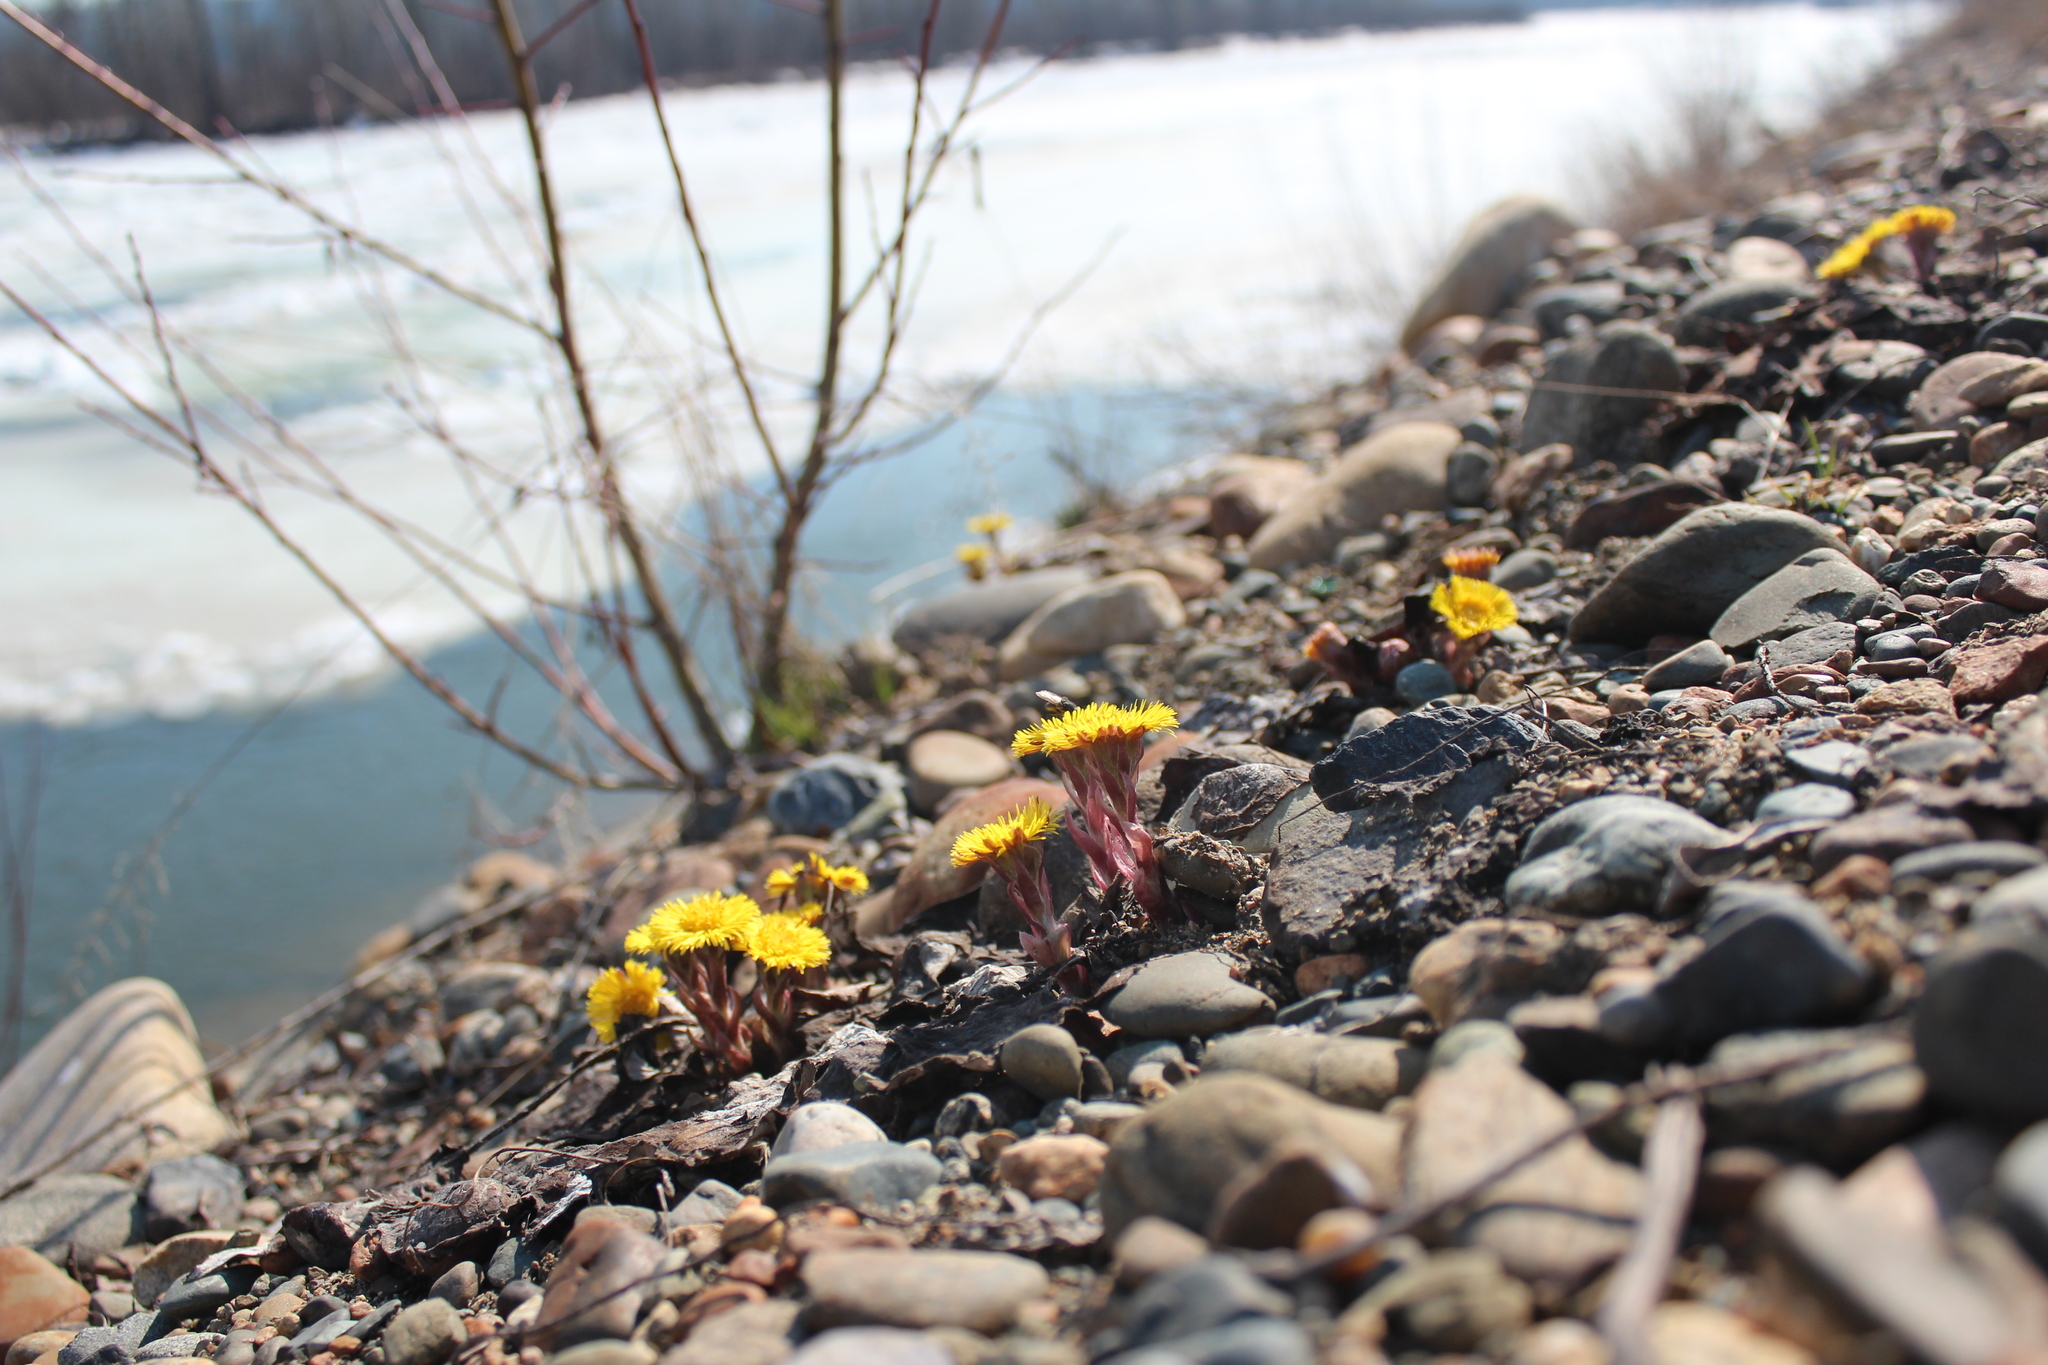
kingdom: Plantae
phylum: Tracheophyta
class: Magnoliopsida
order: Asterales
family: Asteraceae
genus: Tussilago
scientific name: Tussilago farfara
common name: Coltsfoot
